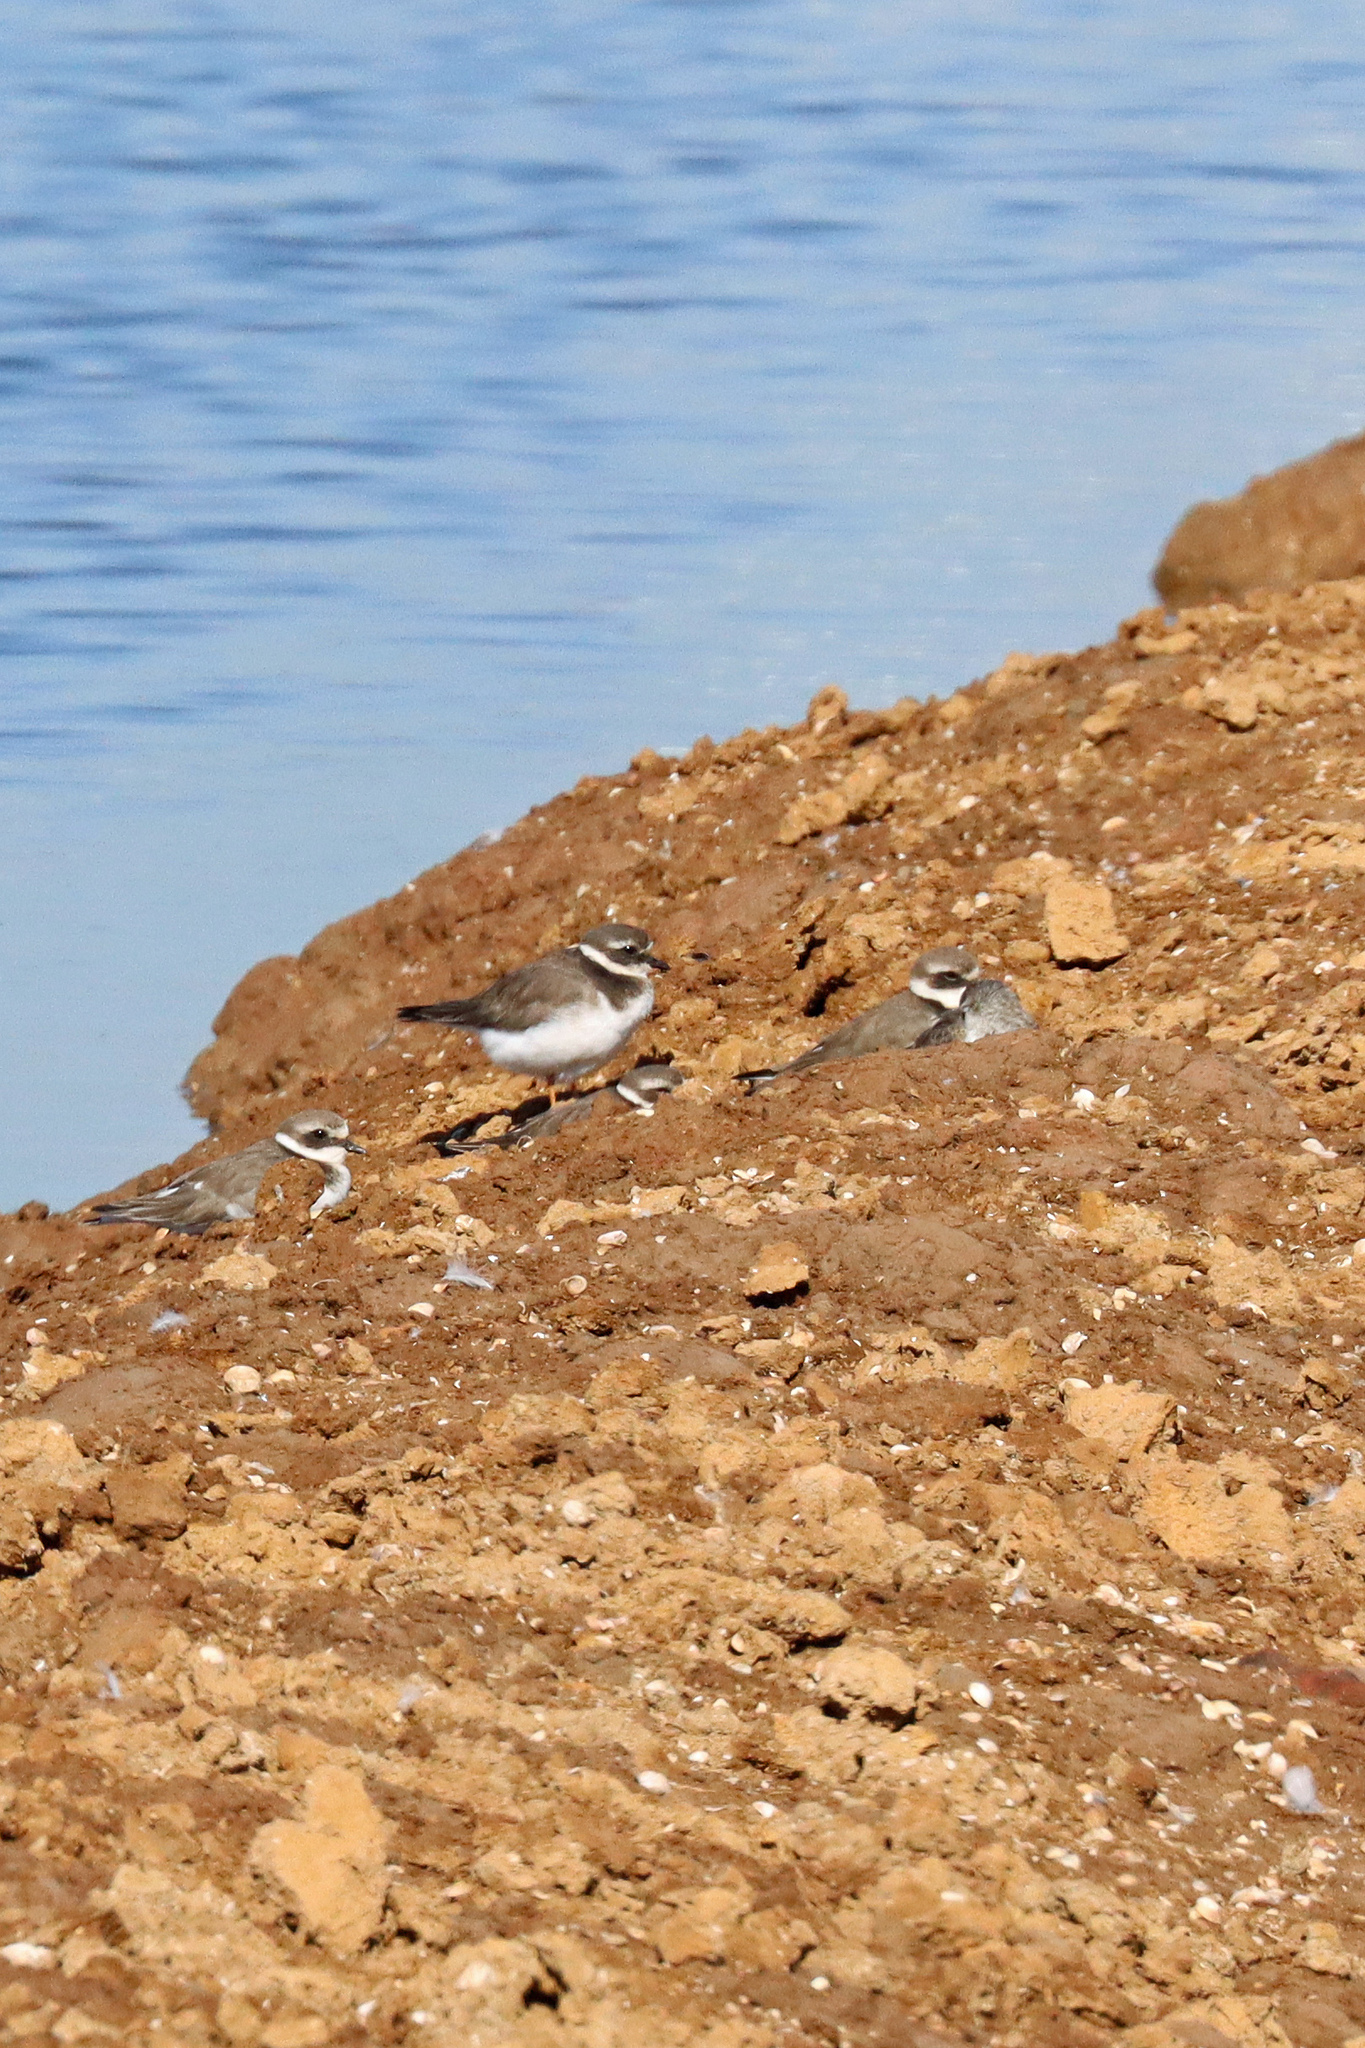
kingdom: Animalia
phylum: Chordata
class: Aves
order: Charadriiformes
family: Charadriidae
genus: Charadrius
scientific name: Charadrius hiaticula
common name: Common ringed plover
